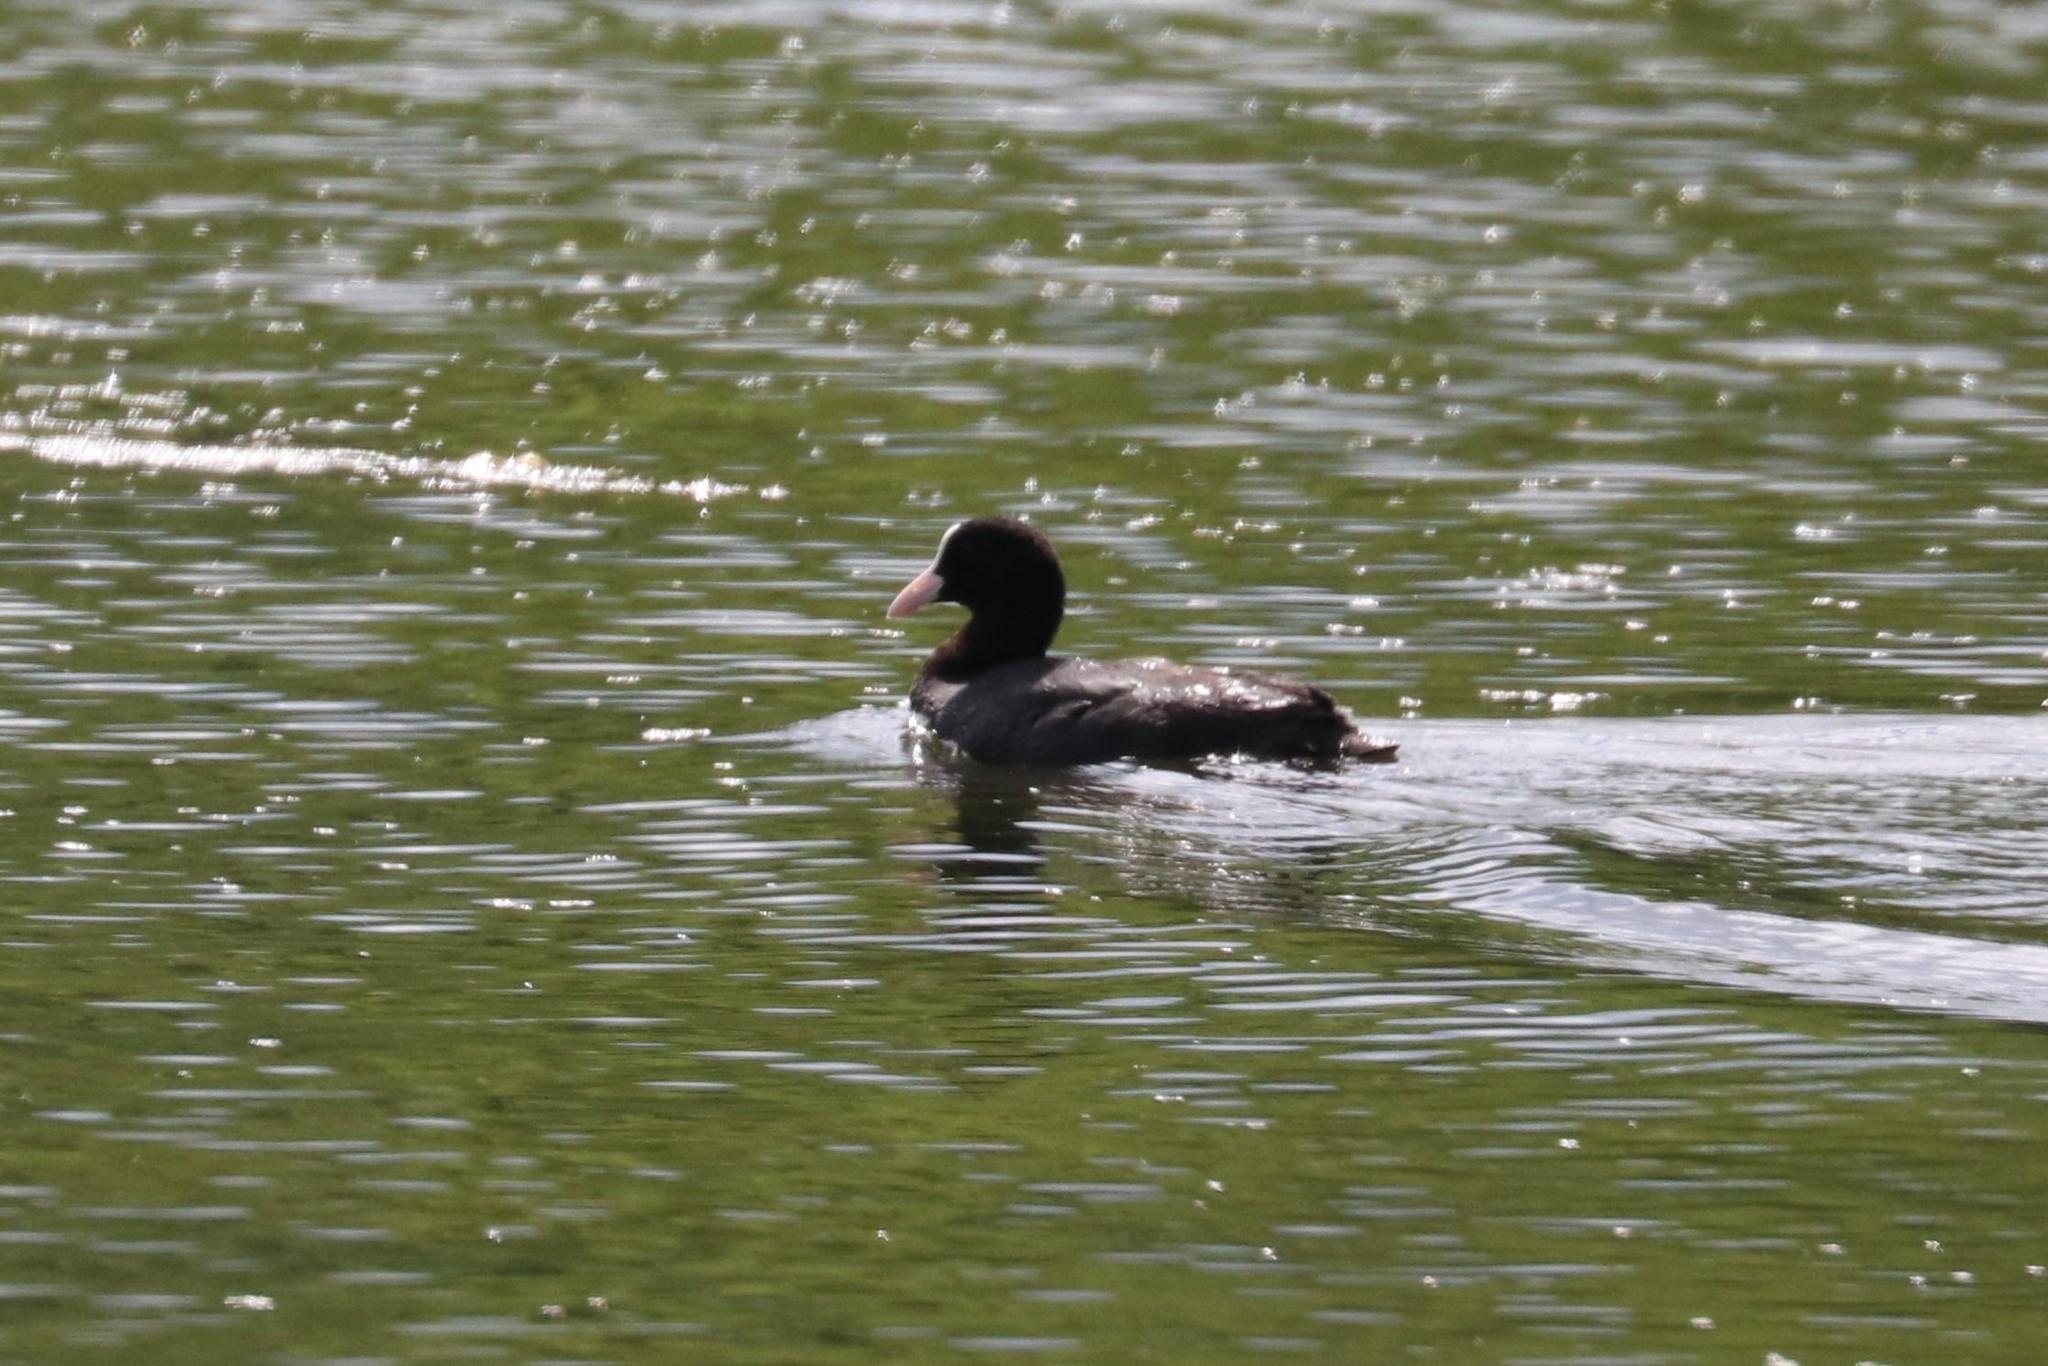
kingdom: Animalia
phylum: Chordata
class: Aves
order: Gruiformes
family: Rallidae
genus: Fulica
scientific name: Fulica atra
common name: Eurasian coot
